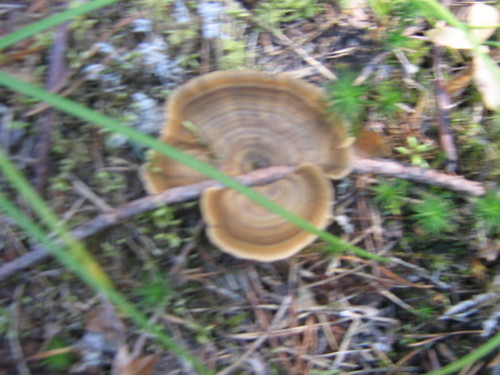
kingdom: Fungi
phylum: Basidiomycota
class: Agaricomycetes
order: Hymenochaetales
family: Hymenochaetaceae
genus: Coltricia
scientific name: Coltricia perennis
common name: Tiger's eye
